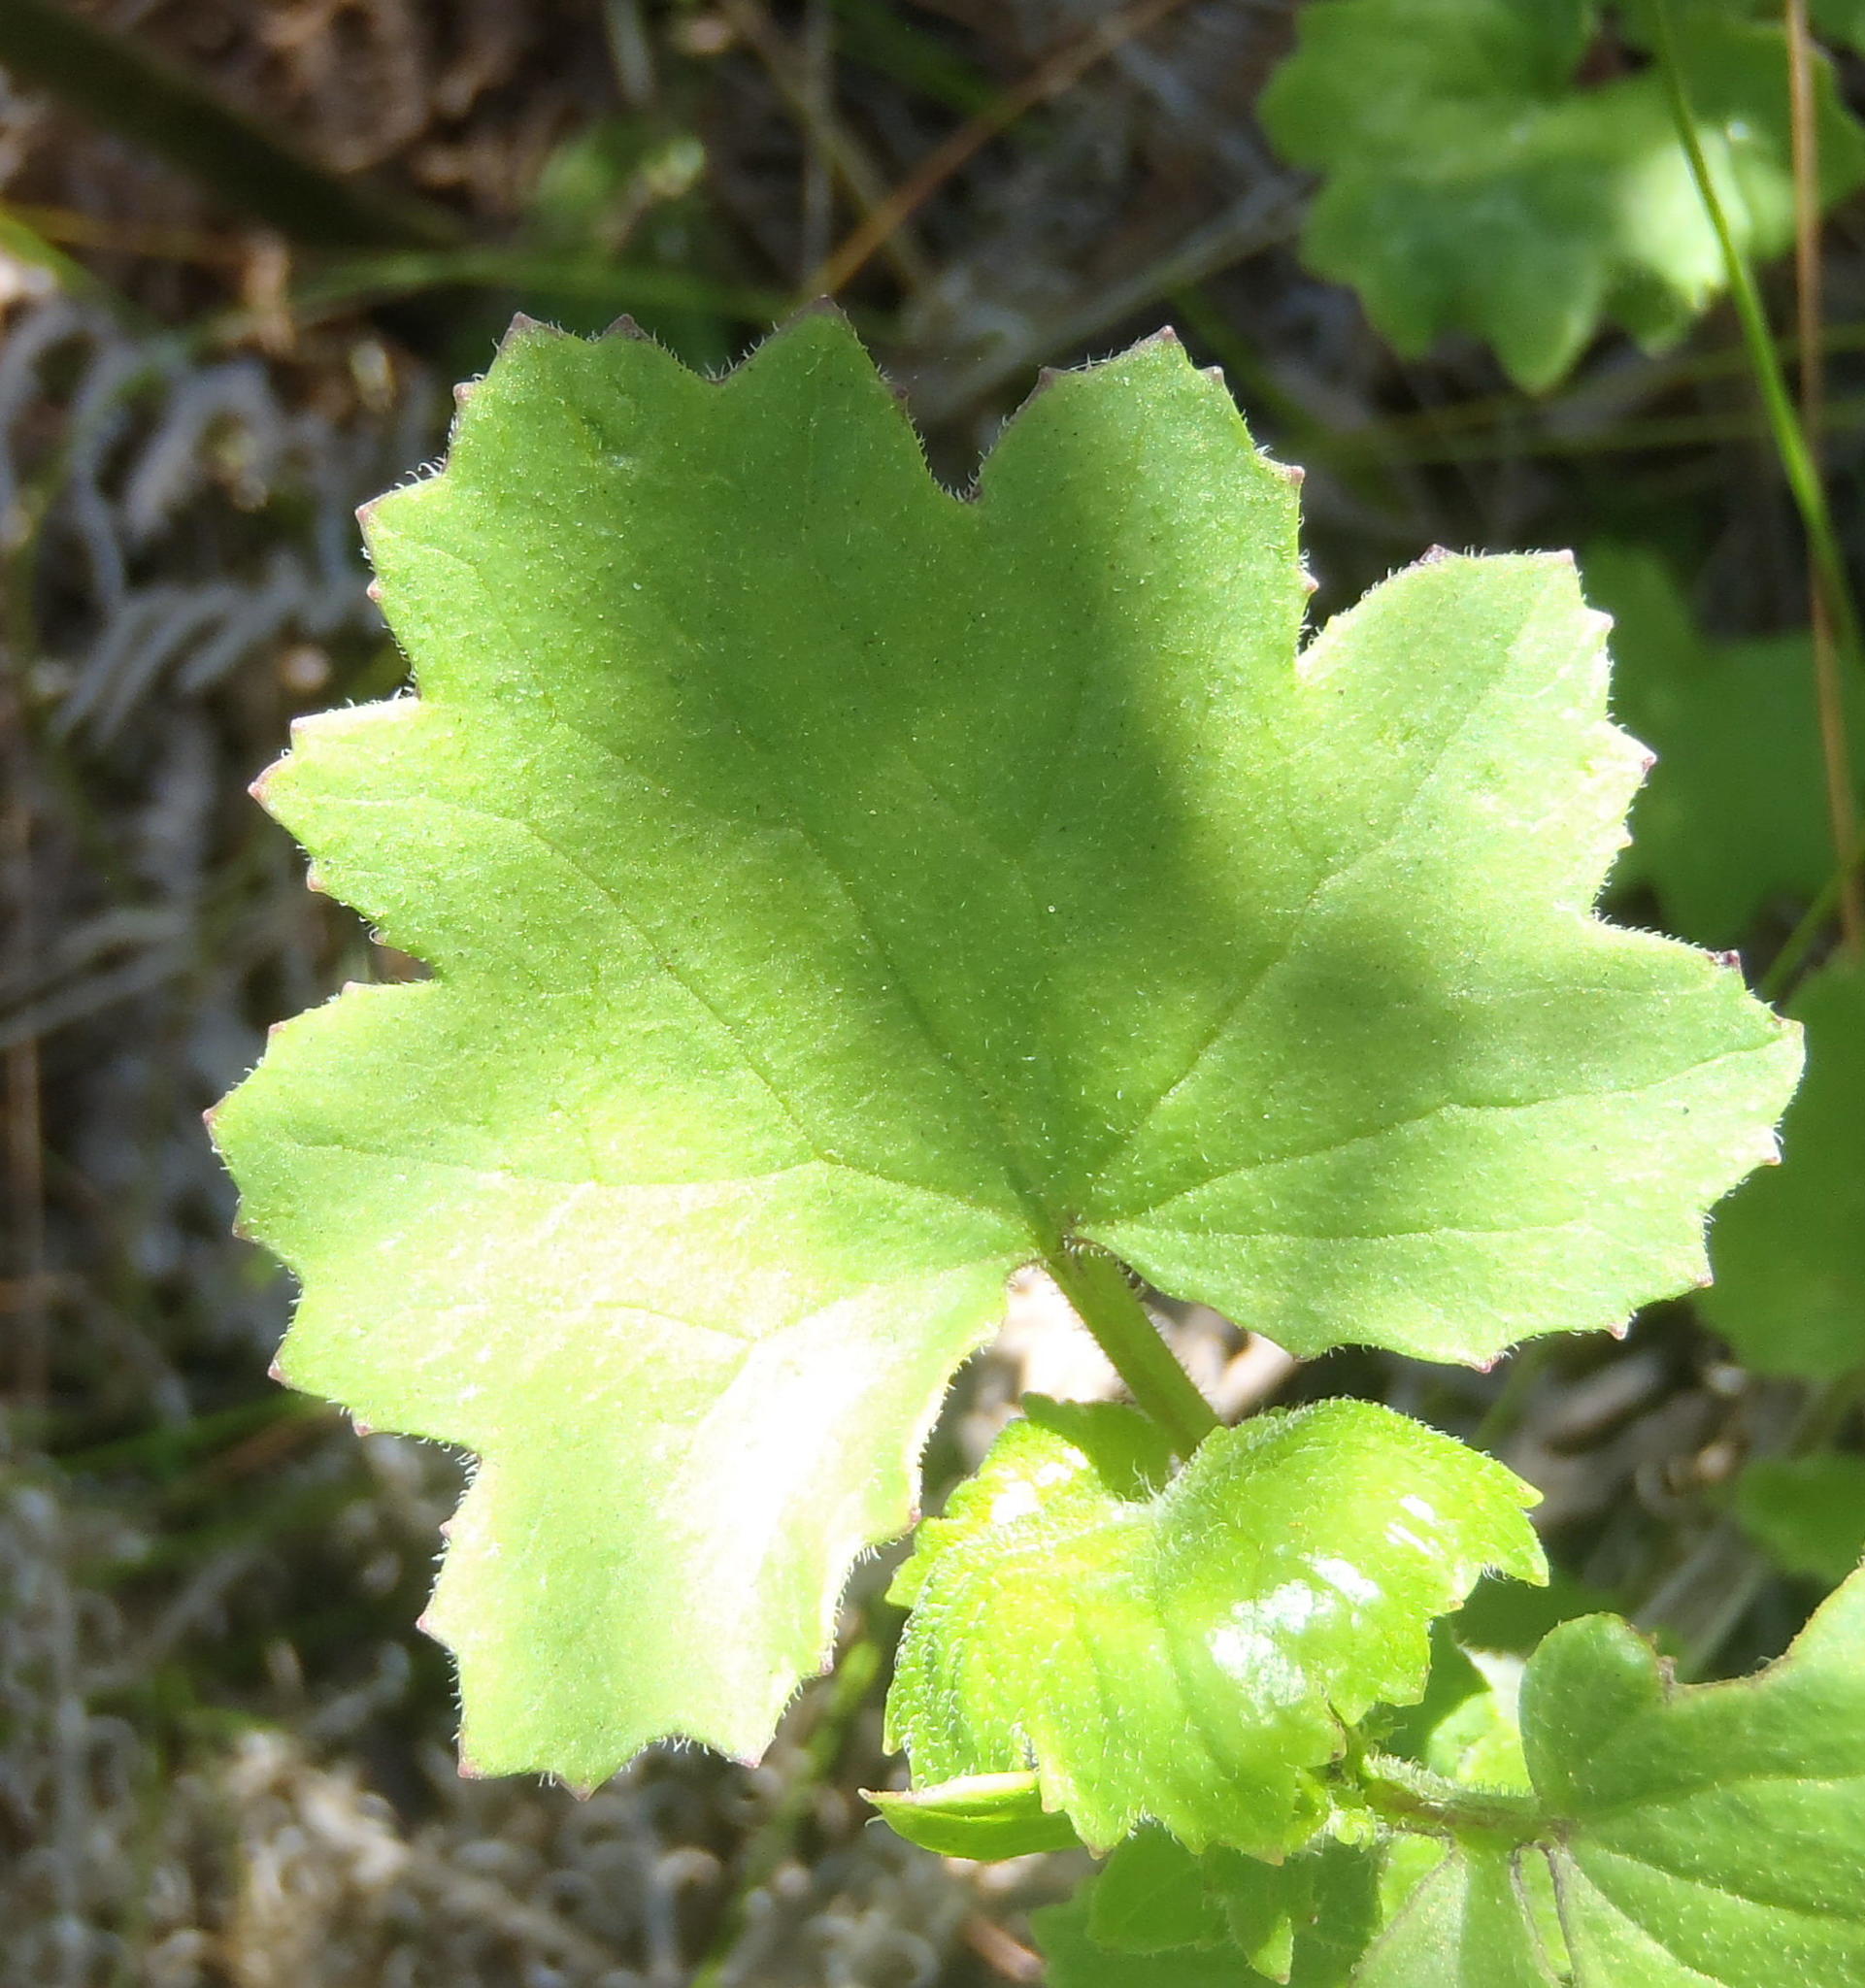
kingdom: Plantae
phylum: Tracheophyta
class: Magnoliopsida
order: Asterales
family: Asteraceae
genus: Cineraria
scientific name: Cineraria lobata
